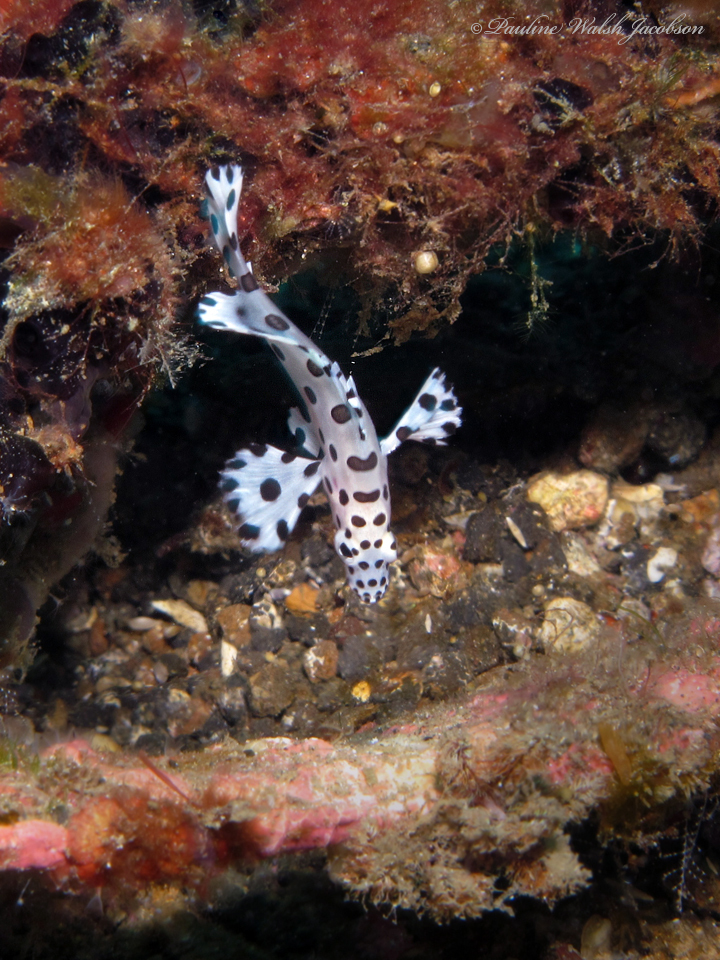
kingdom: Animalia
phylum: Chordata
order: Perciformes
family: Serranidae
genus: Cromileptes
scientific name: Cromileptes altivelis
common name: Humpback grouper
